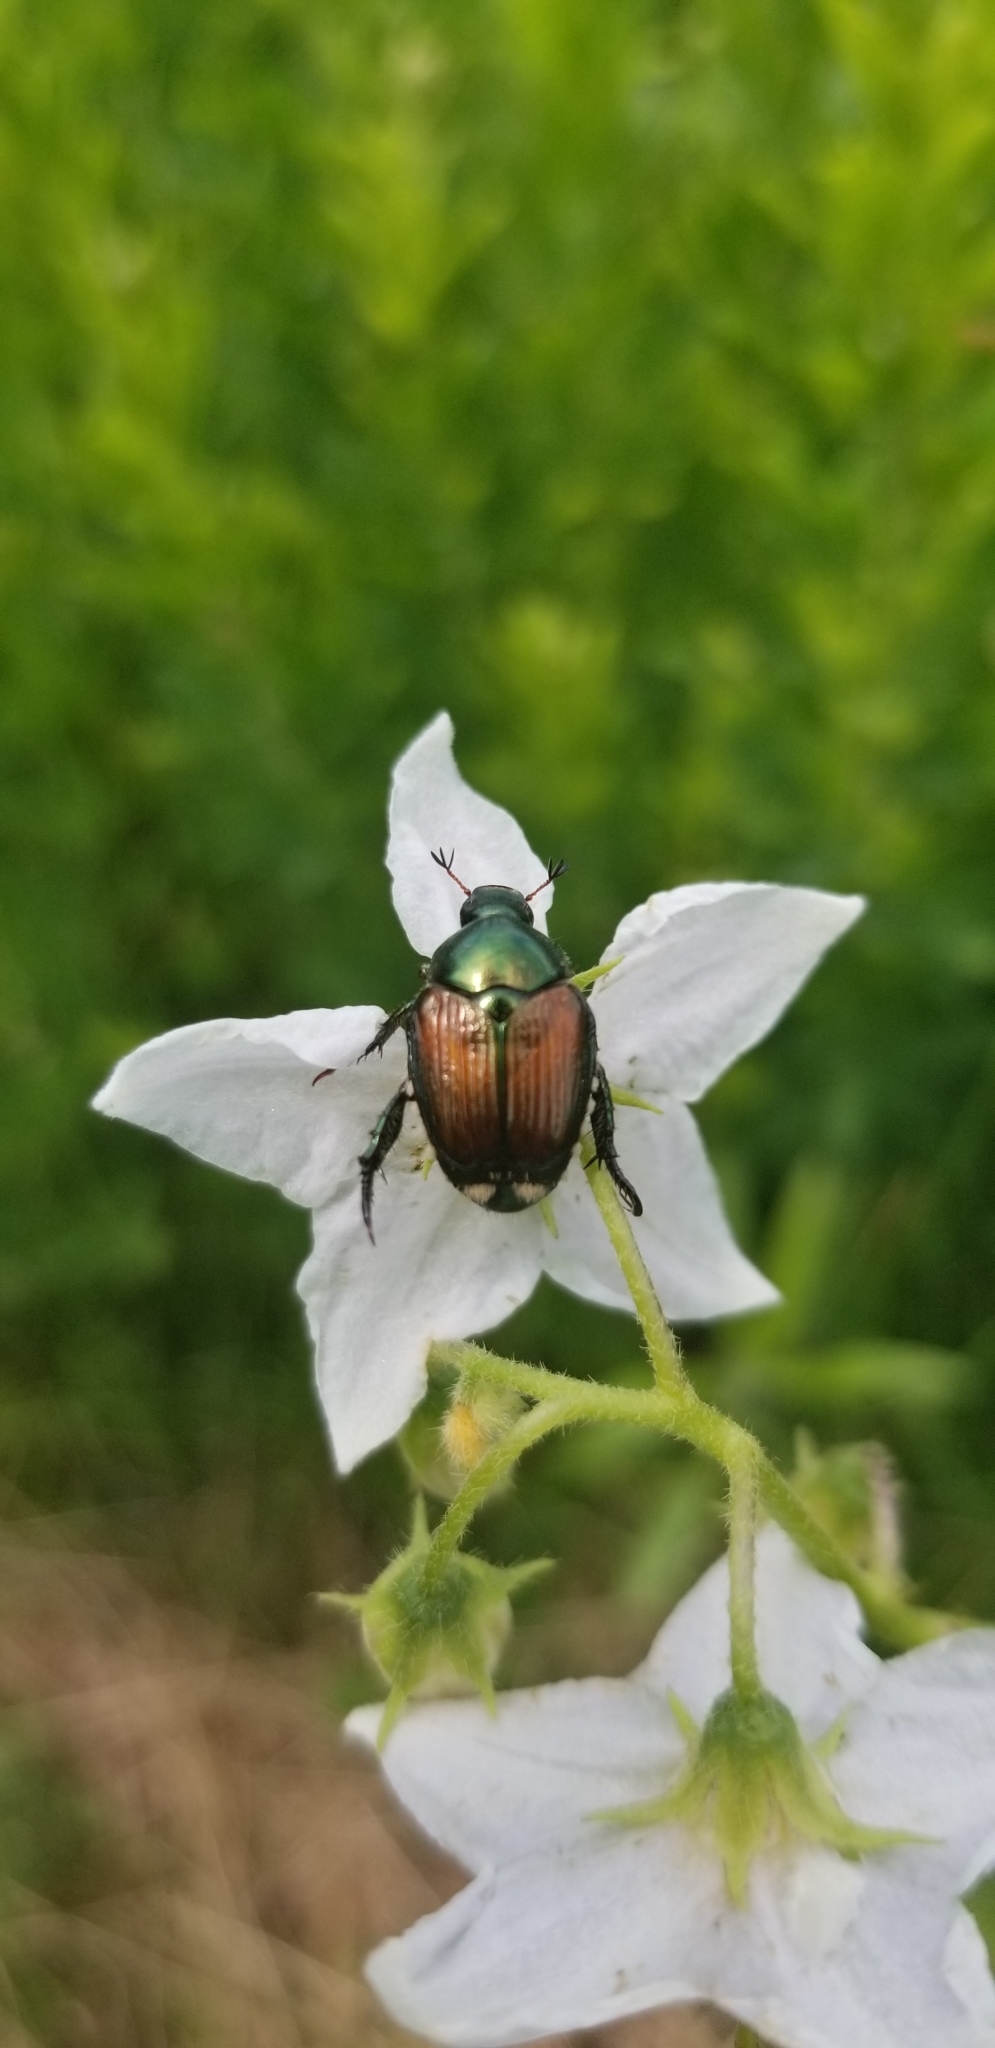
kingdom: Animalia
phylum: Arthropoda
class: Insecta
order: Coleoptera
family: Scarabaeidae
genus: Popillia
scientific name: Popillia japonica
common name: Japanese beetle
